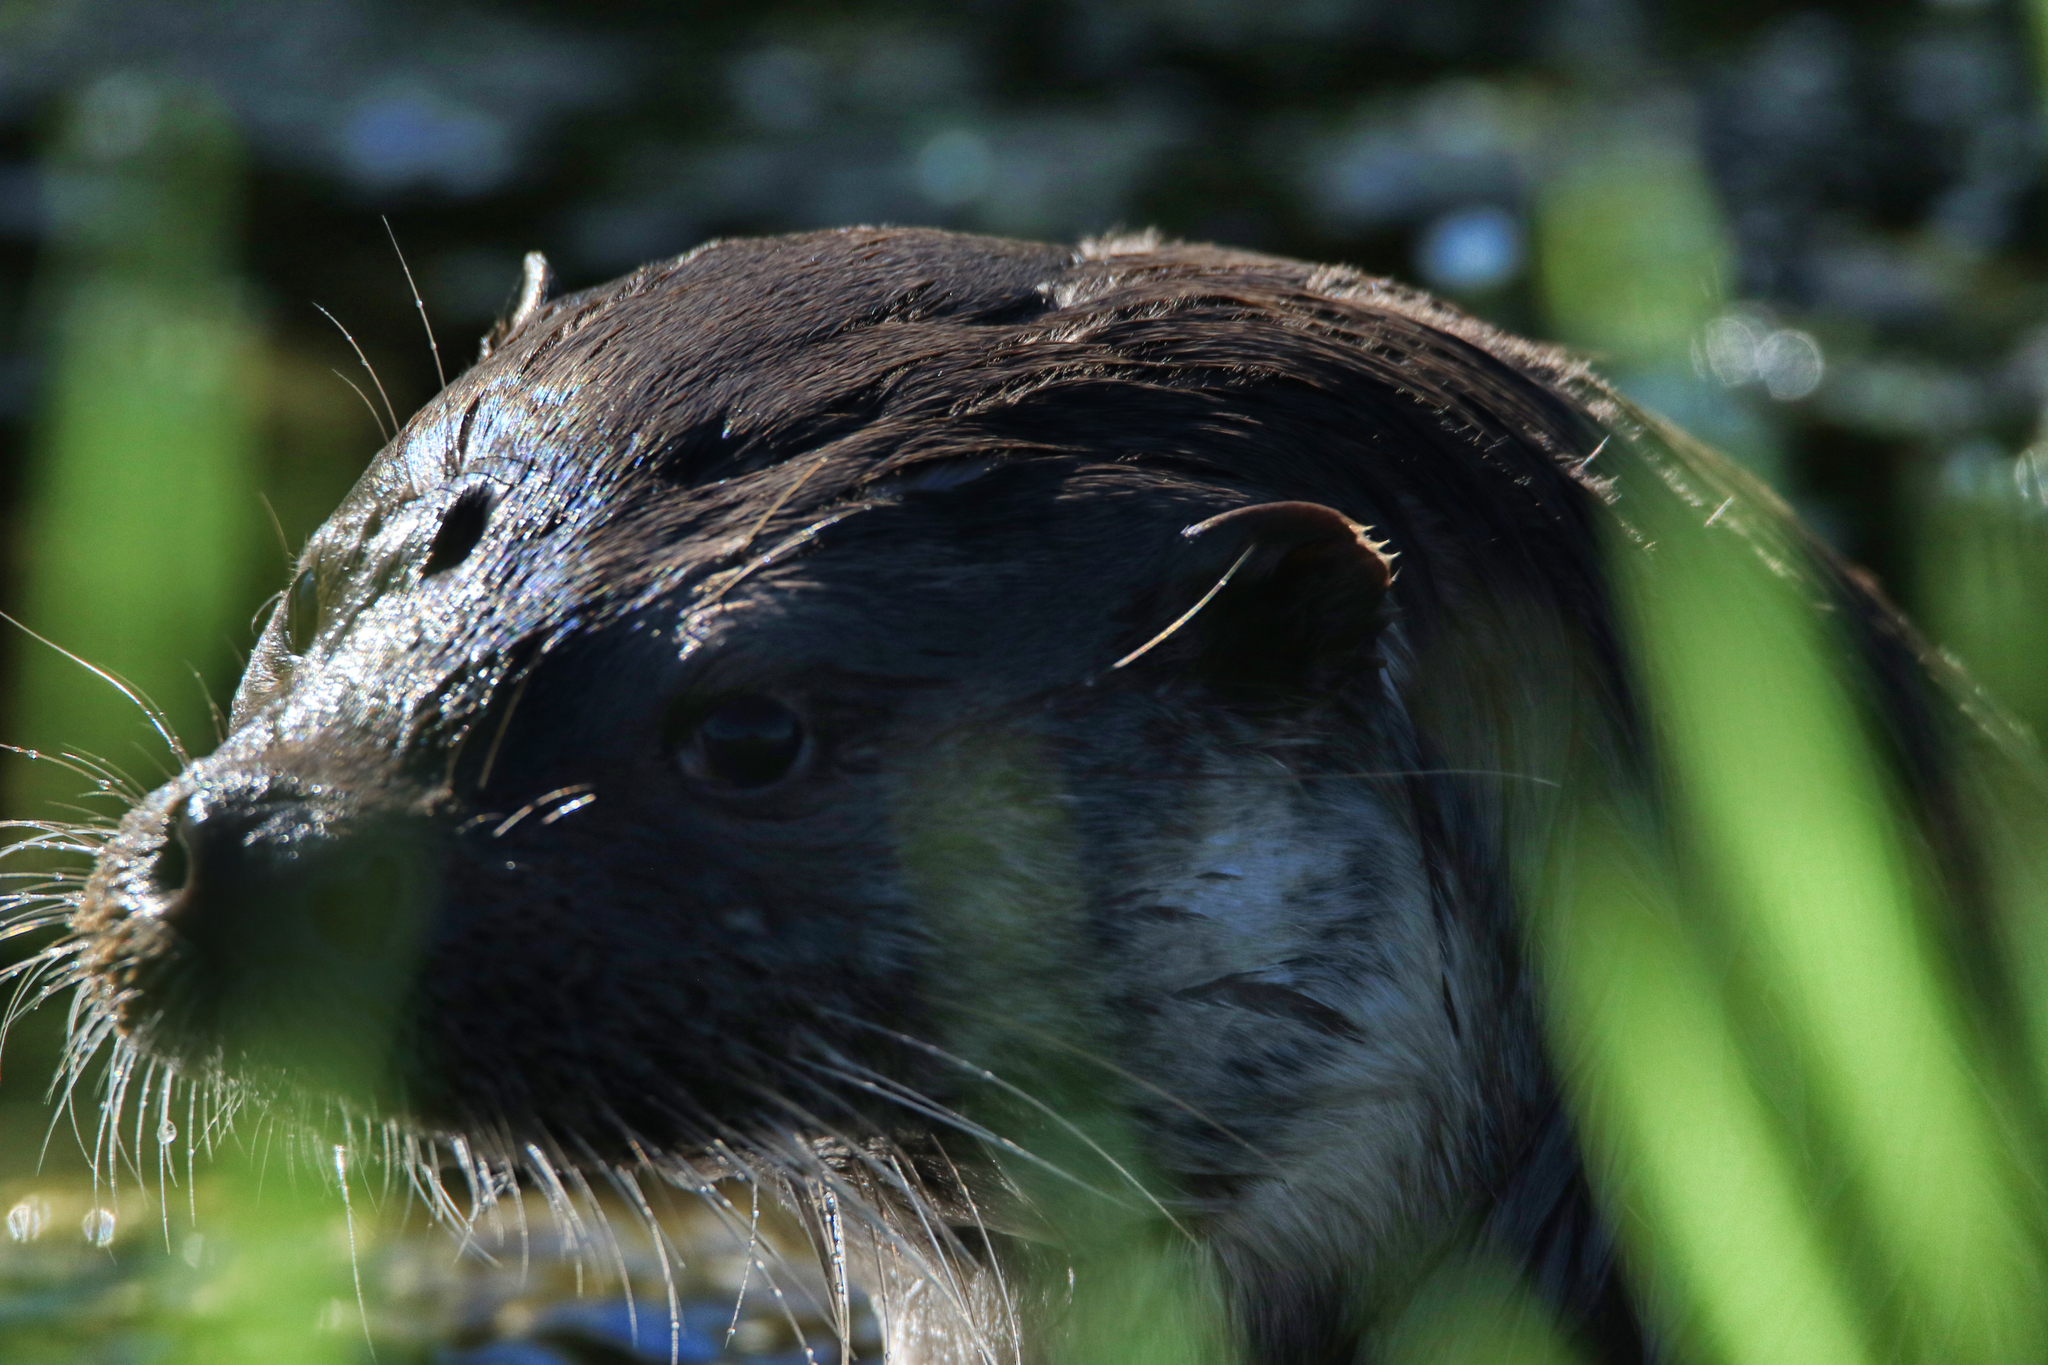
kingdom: Animalia
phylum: Chordata
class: Mammalia
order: Carnivora
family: Mustelidae
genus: Lutra
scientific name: Lutra lutra
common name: European otter
